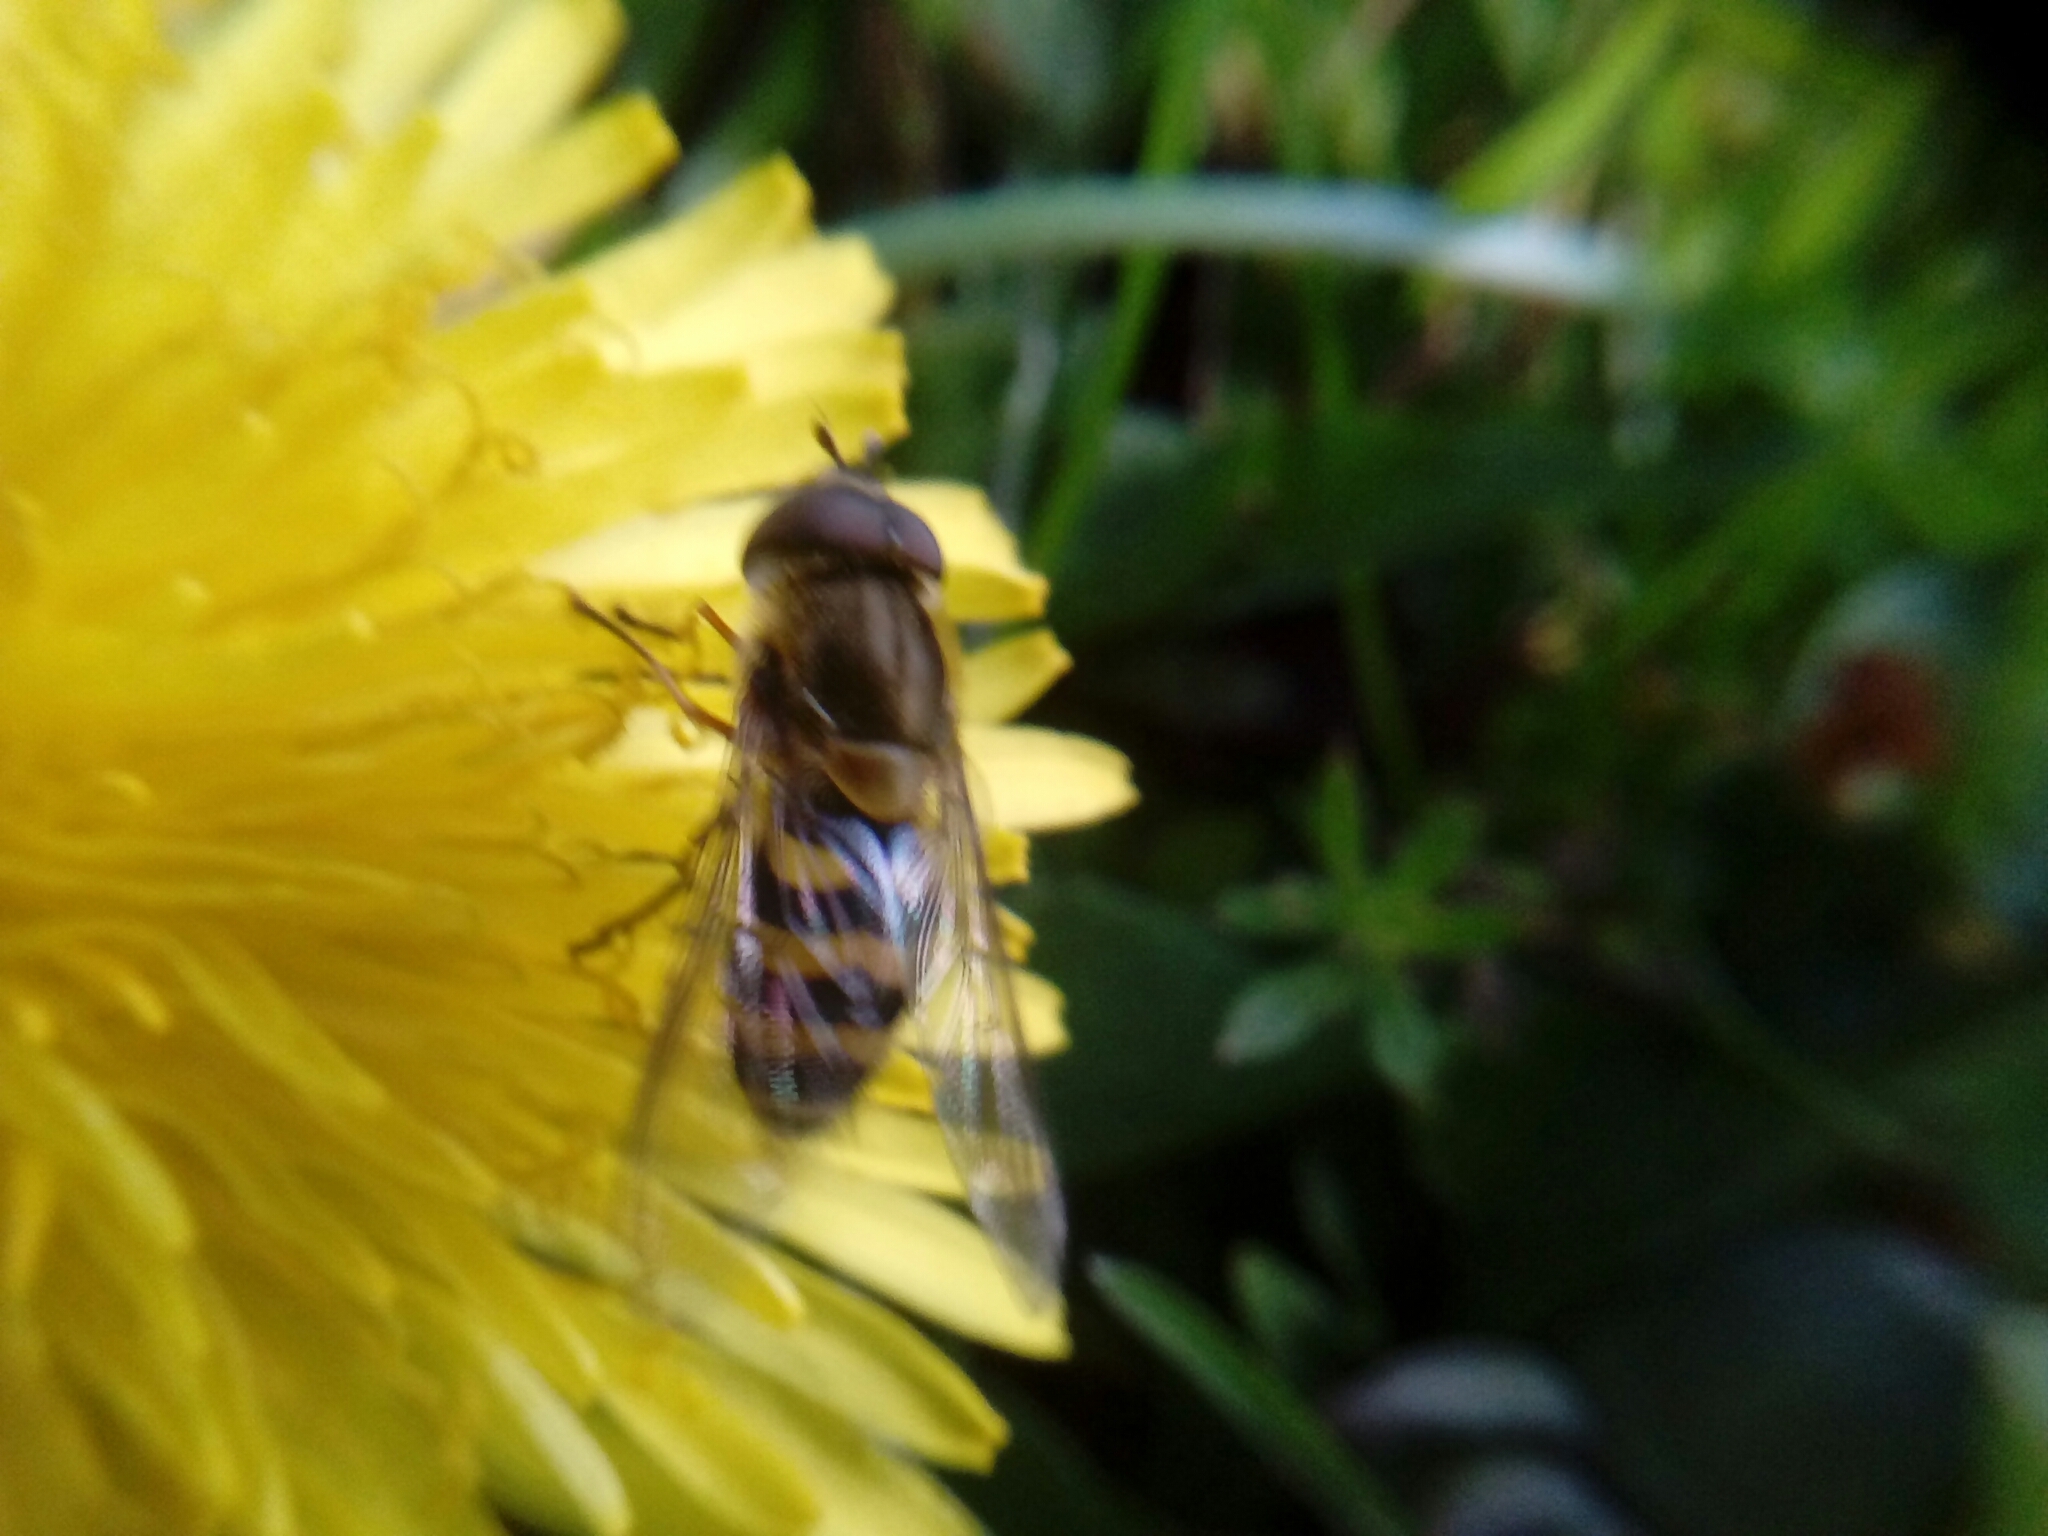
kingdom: Animalia
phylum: Arthropoda
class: Insecta
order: Diptera
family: Syrphidae
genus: Syrphus
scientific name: Syrphus
